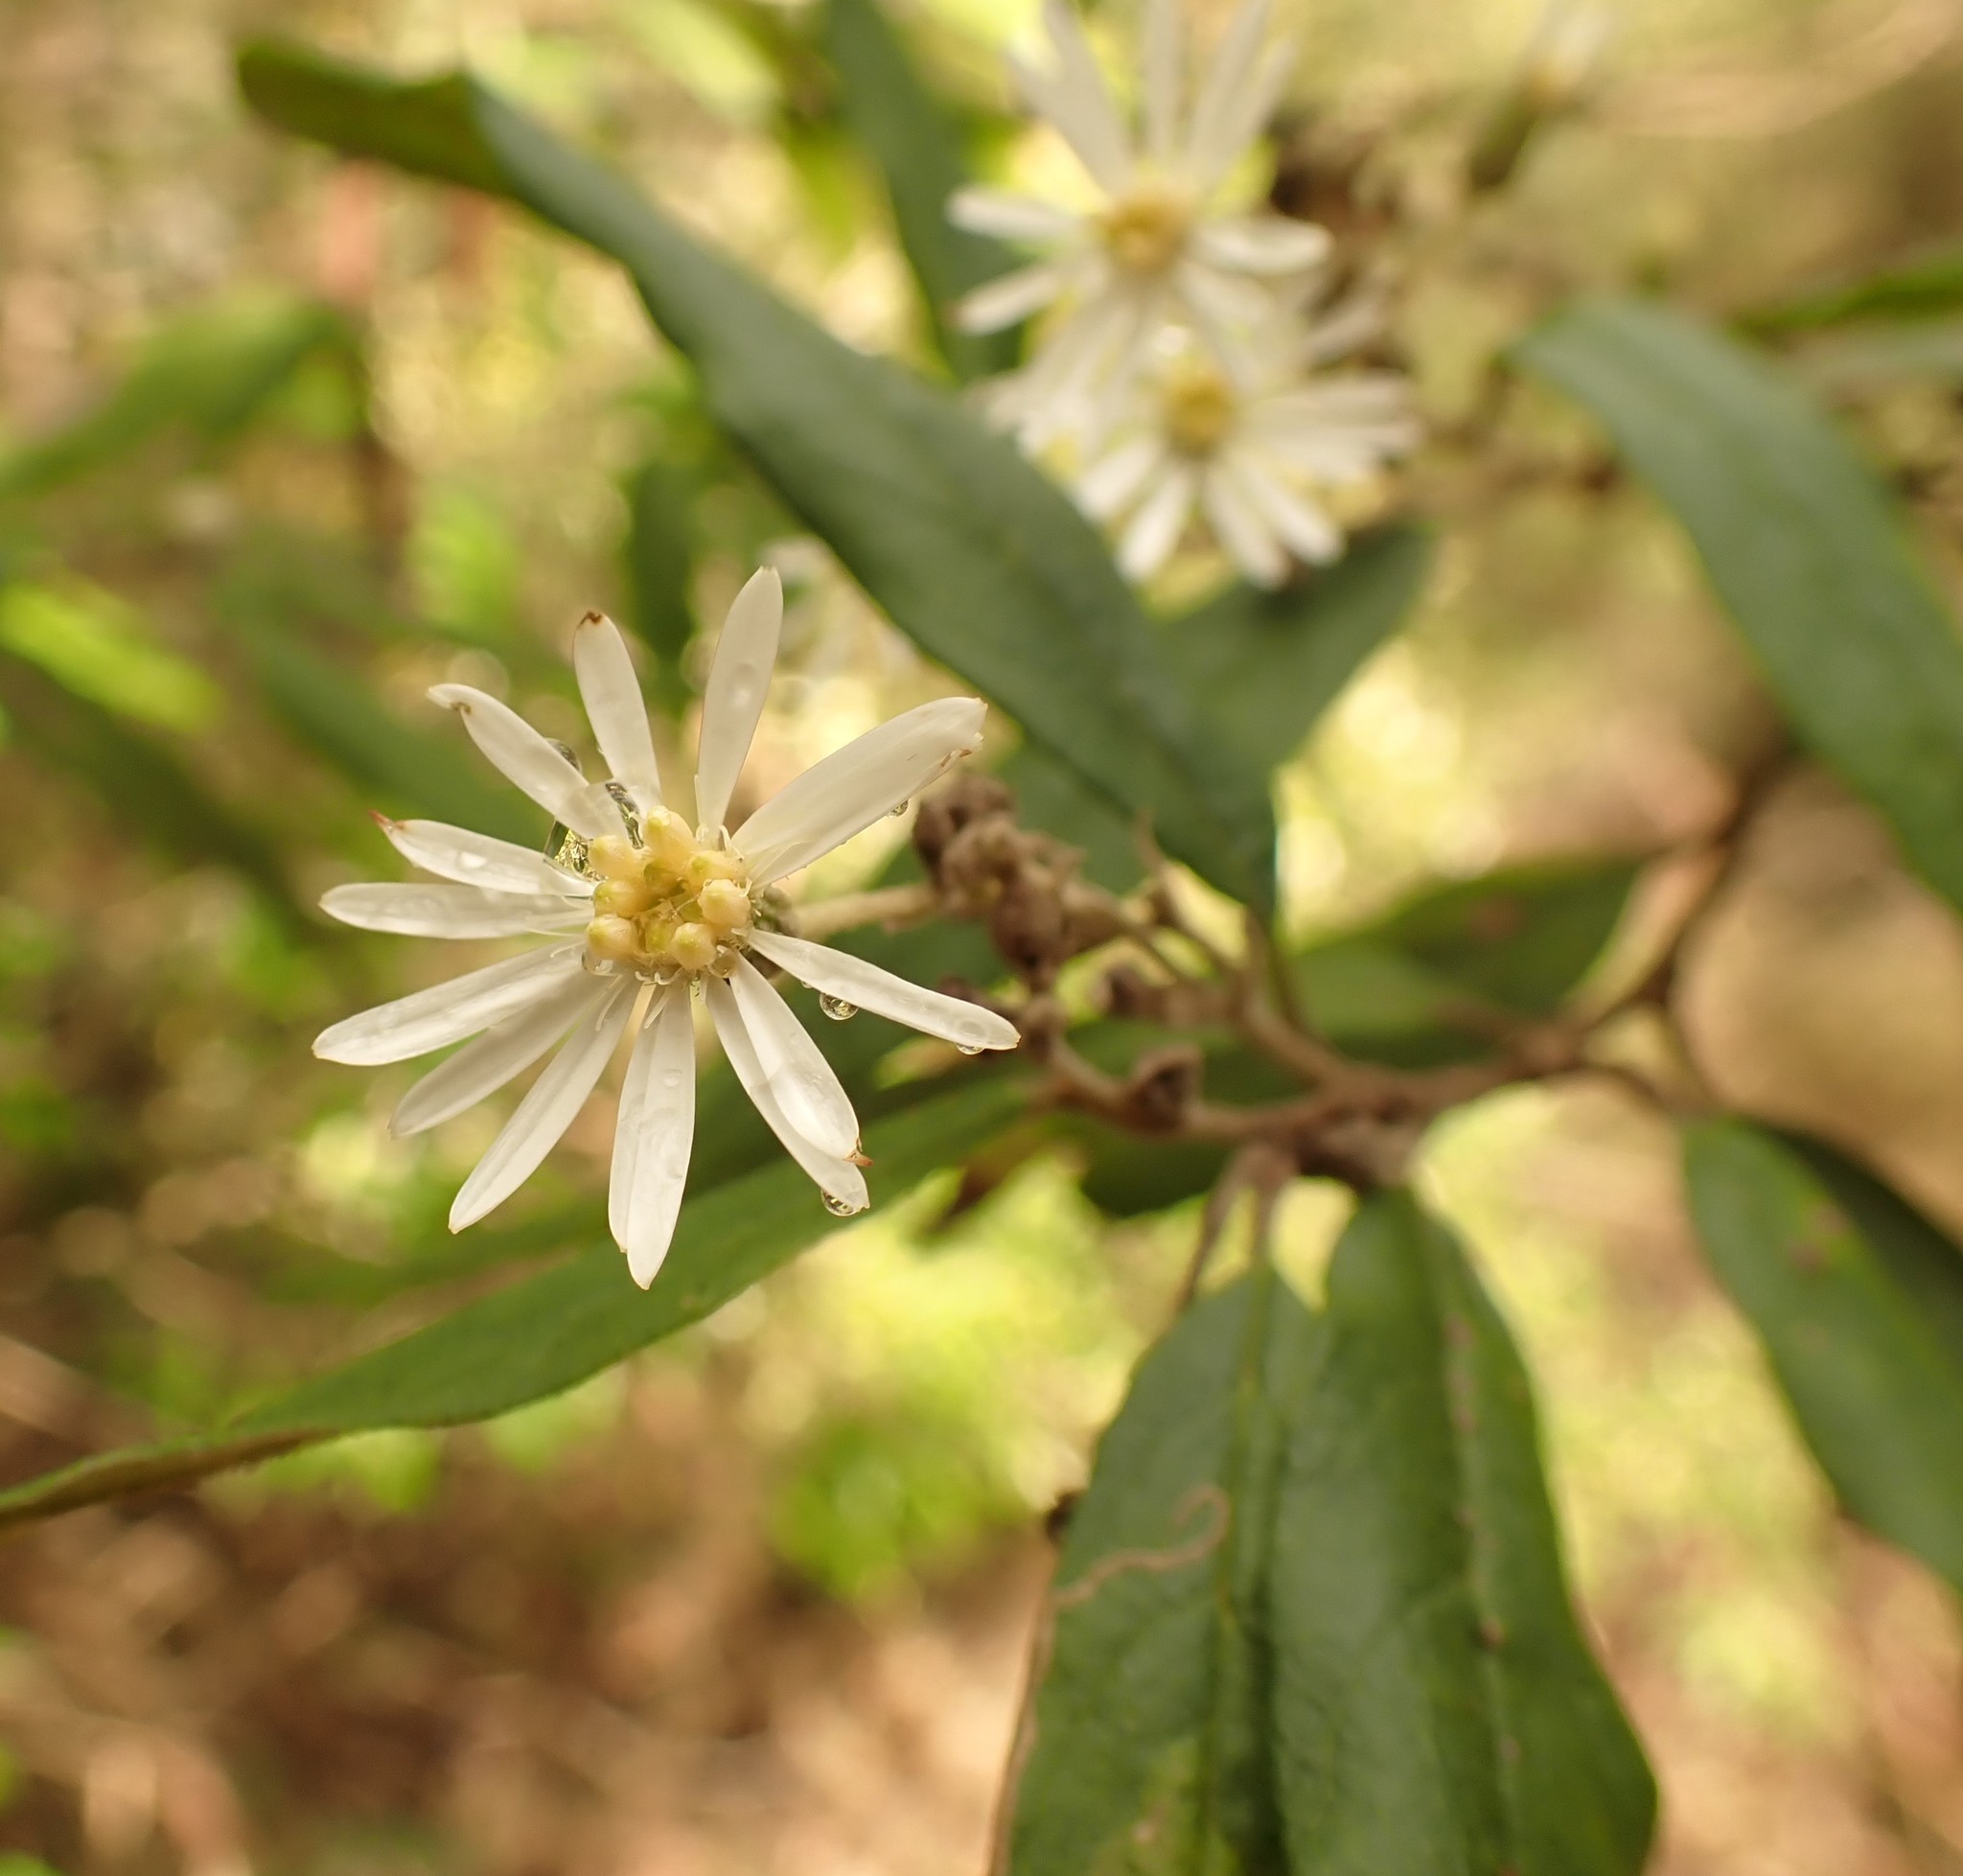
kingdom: Plantae
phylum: Tracheophyta
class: Magnoliopsida
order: Asterales
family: Asteraceae
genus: Olearia
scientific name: Olearia lirata
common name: Dusty daisybush
